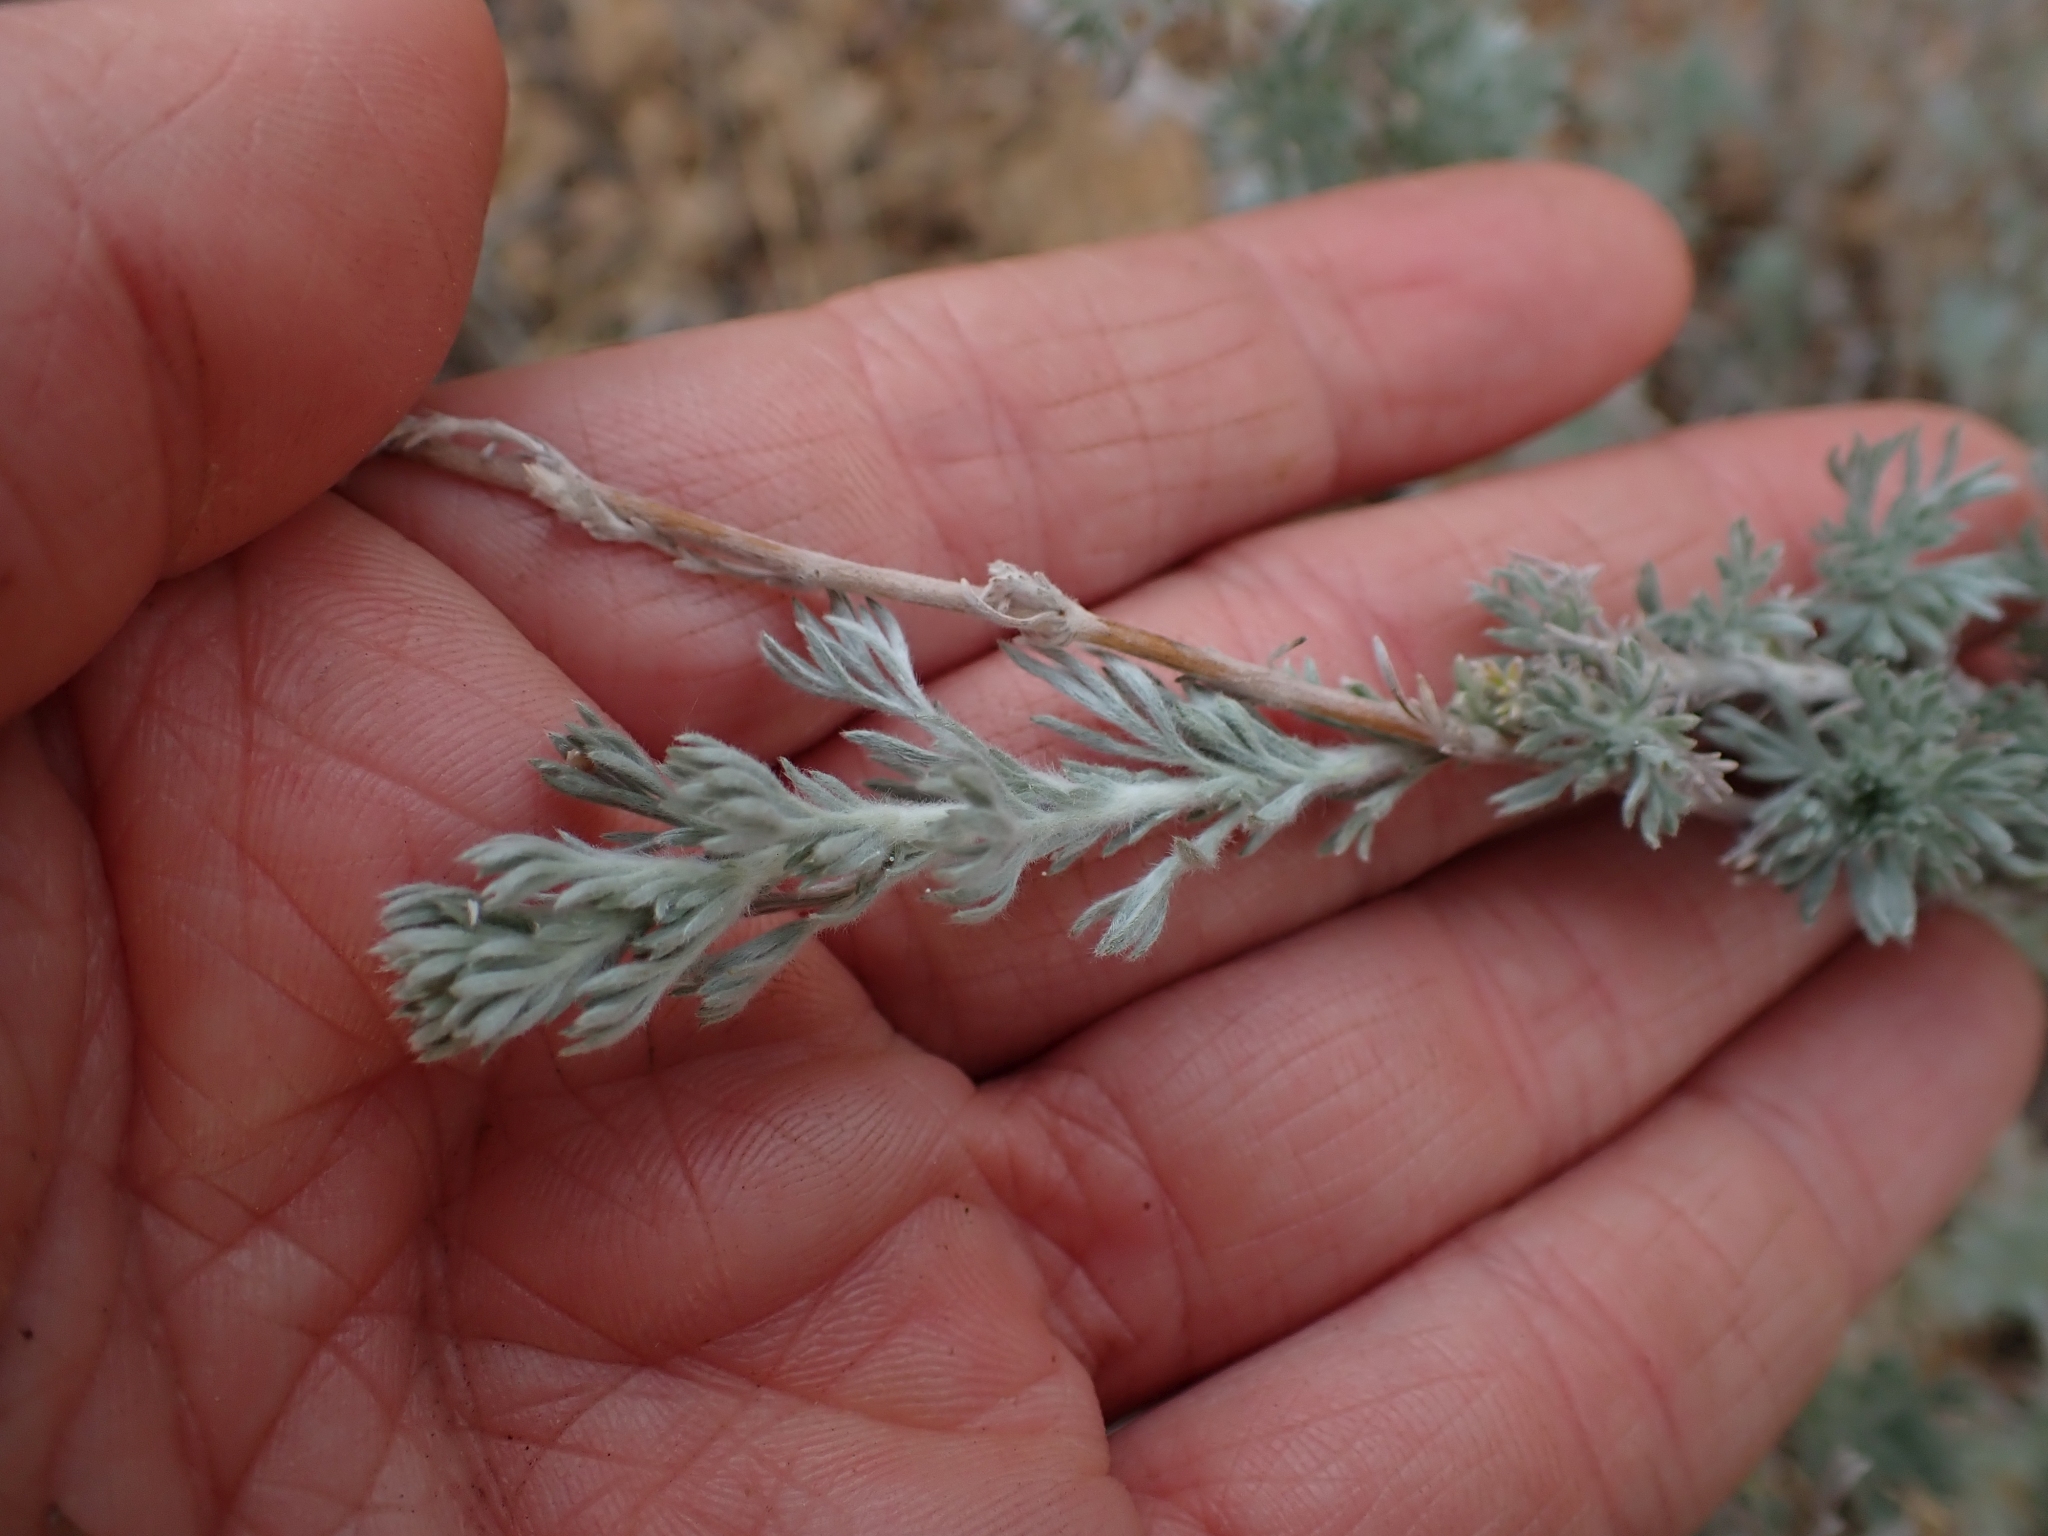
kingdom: Plantae
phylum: Tracheophyta
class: Magnoliopsida
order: Asterales
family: Asteraceae
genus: Artemisia
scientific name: Artemisia frigida
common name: Prairie sagewort
